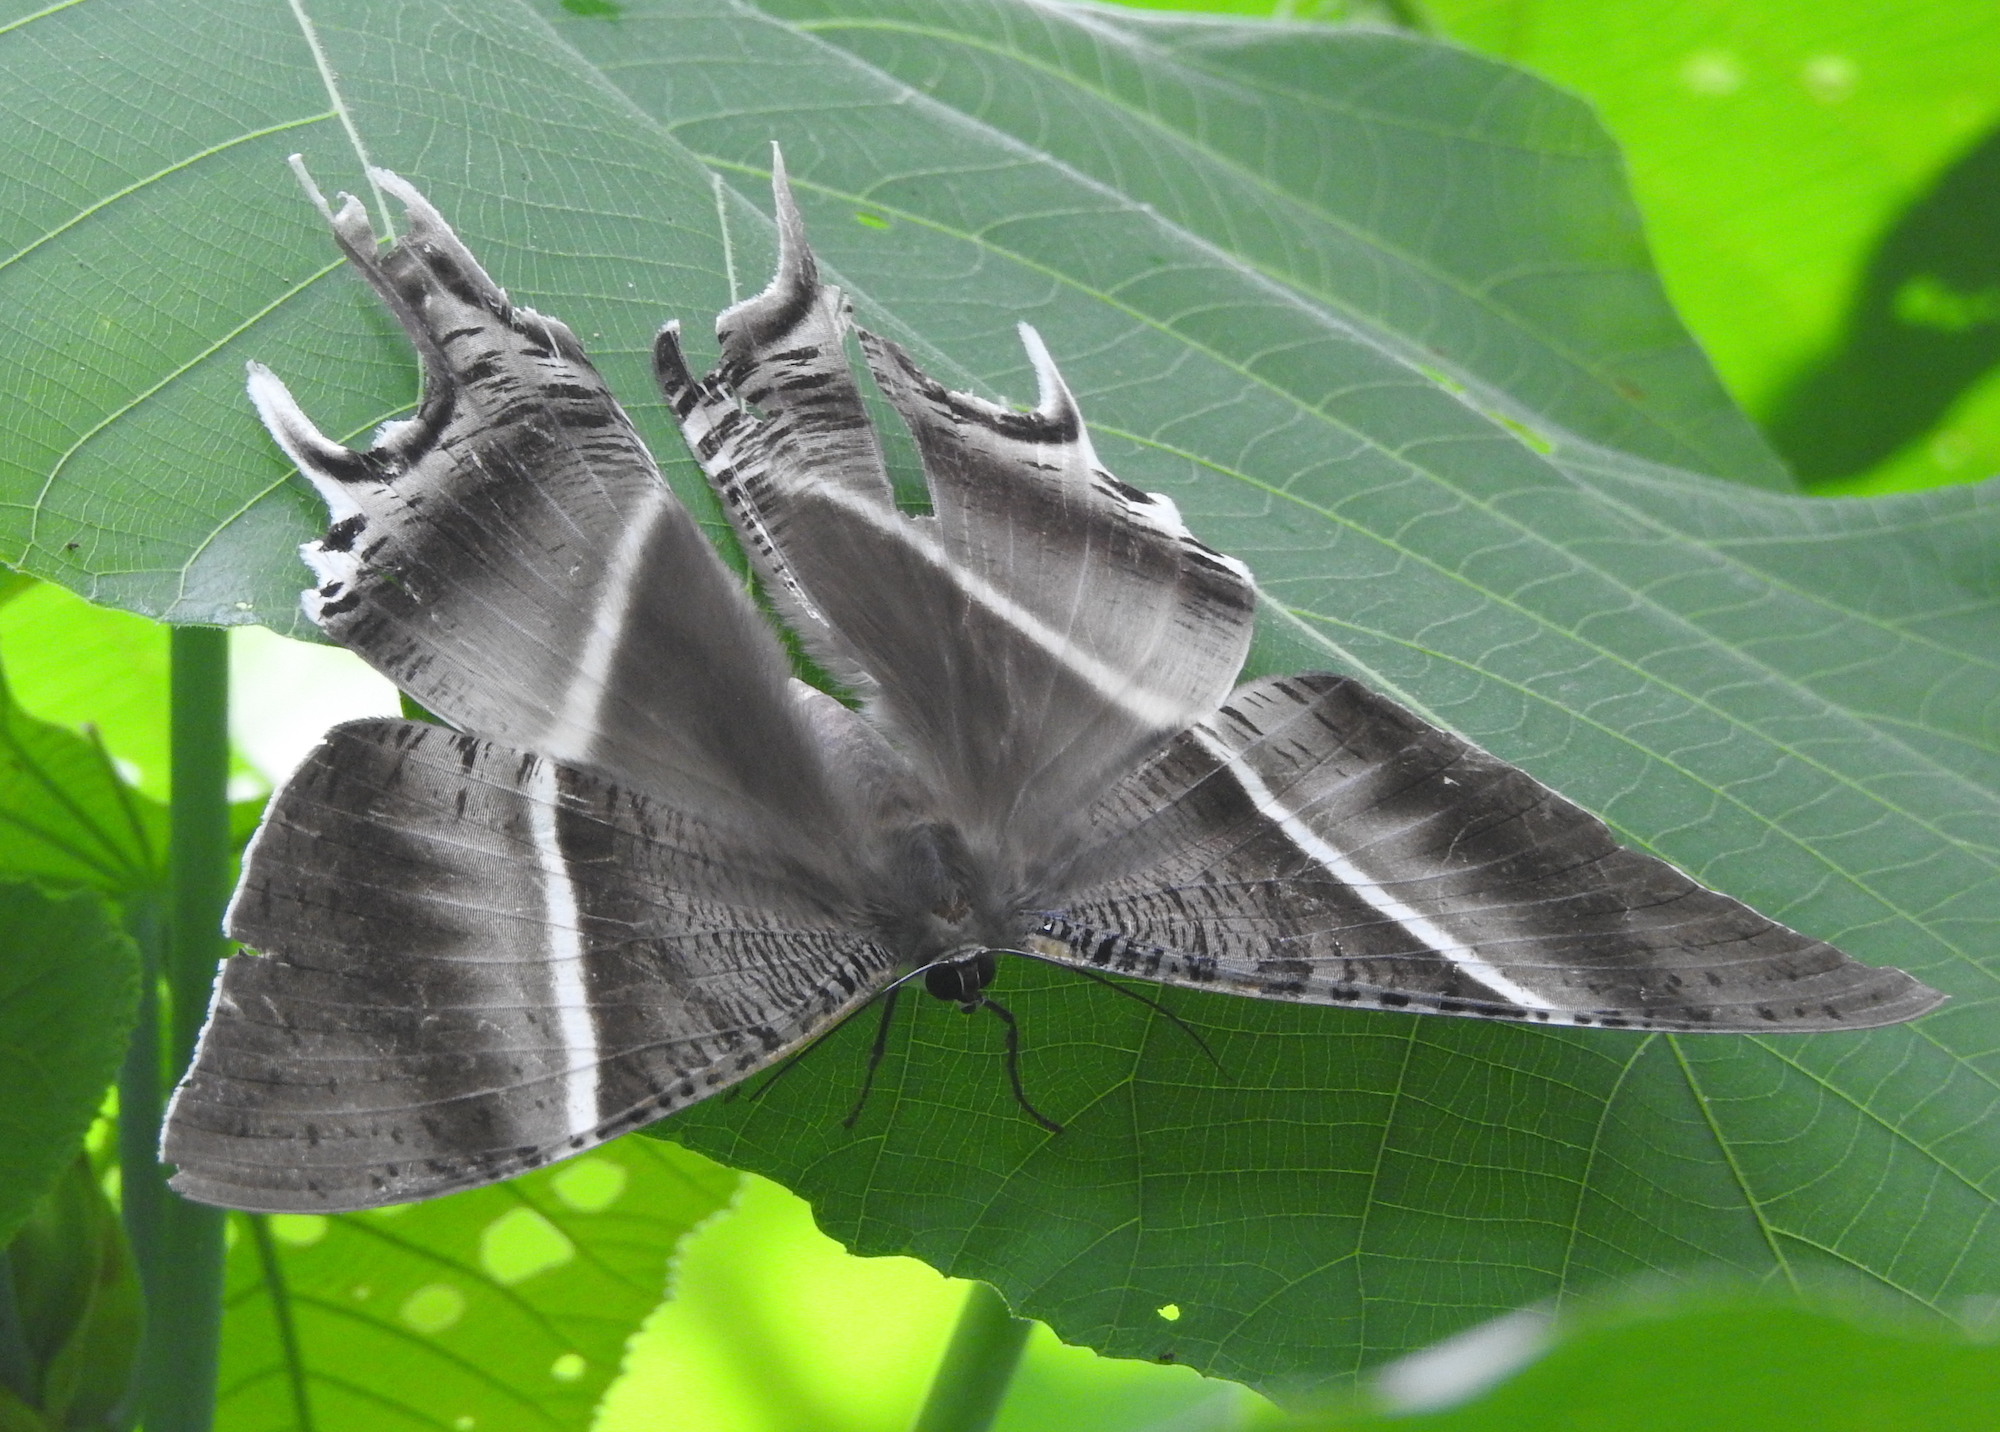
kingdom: Animalia
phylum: Arthropoda
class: Insecta
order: Lepidoptera
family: Uraniidae
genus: Lyssa
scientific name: Lyssa zampa
